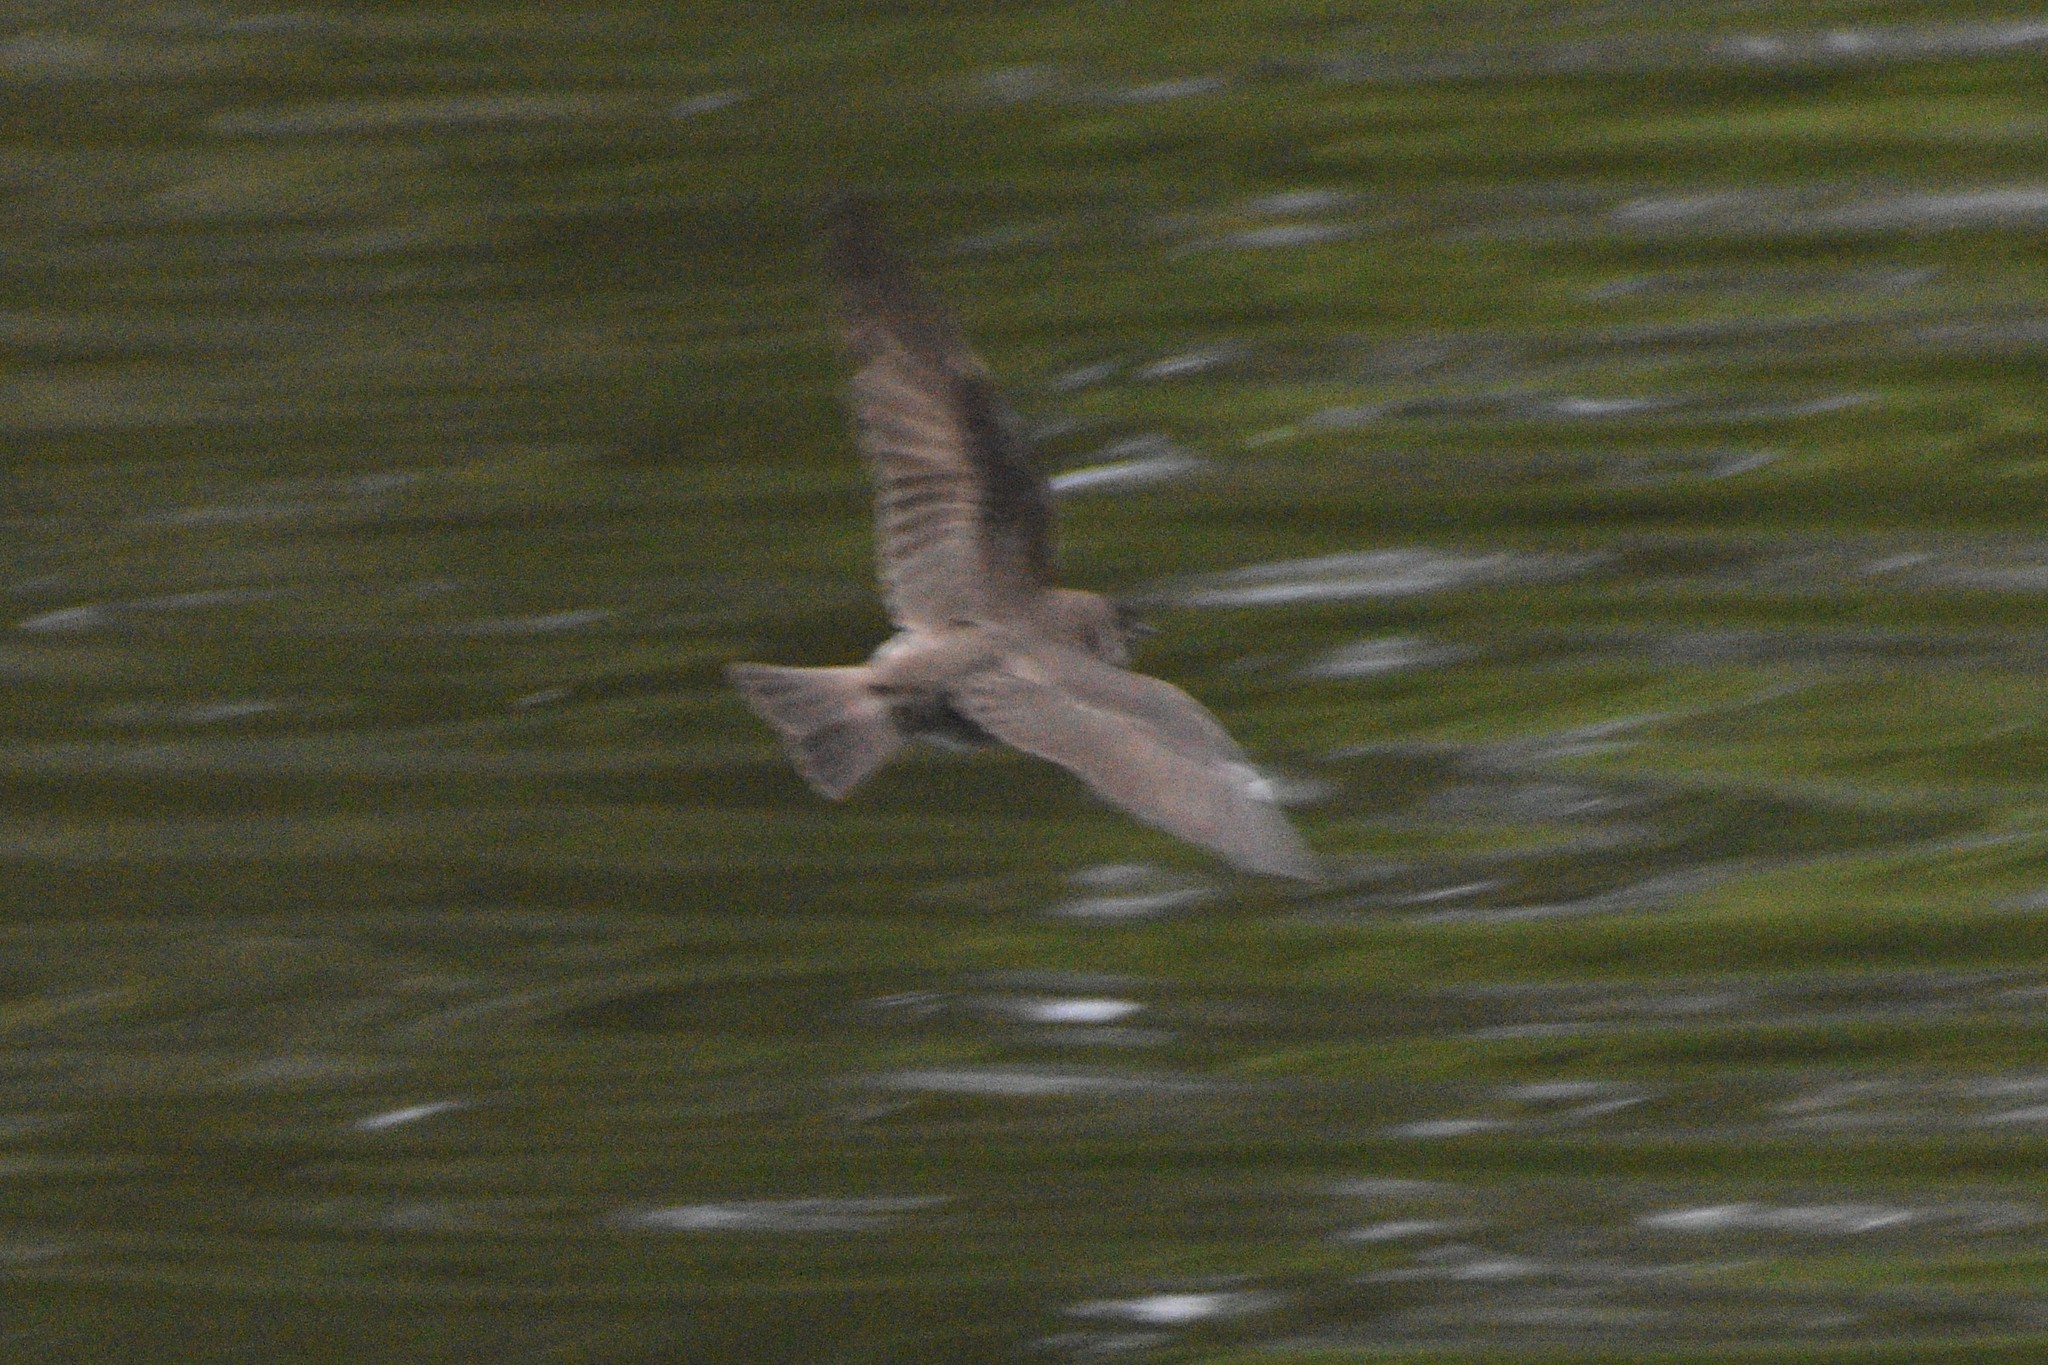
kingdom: Animalia
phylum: Chordata
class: Aves
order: Passeriformes
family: Hirundinidae
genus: Stelgidopteryx
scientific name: Stelgidopteryx serripennis
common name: Northern rough-winged swallow
